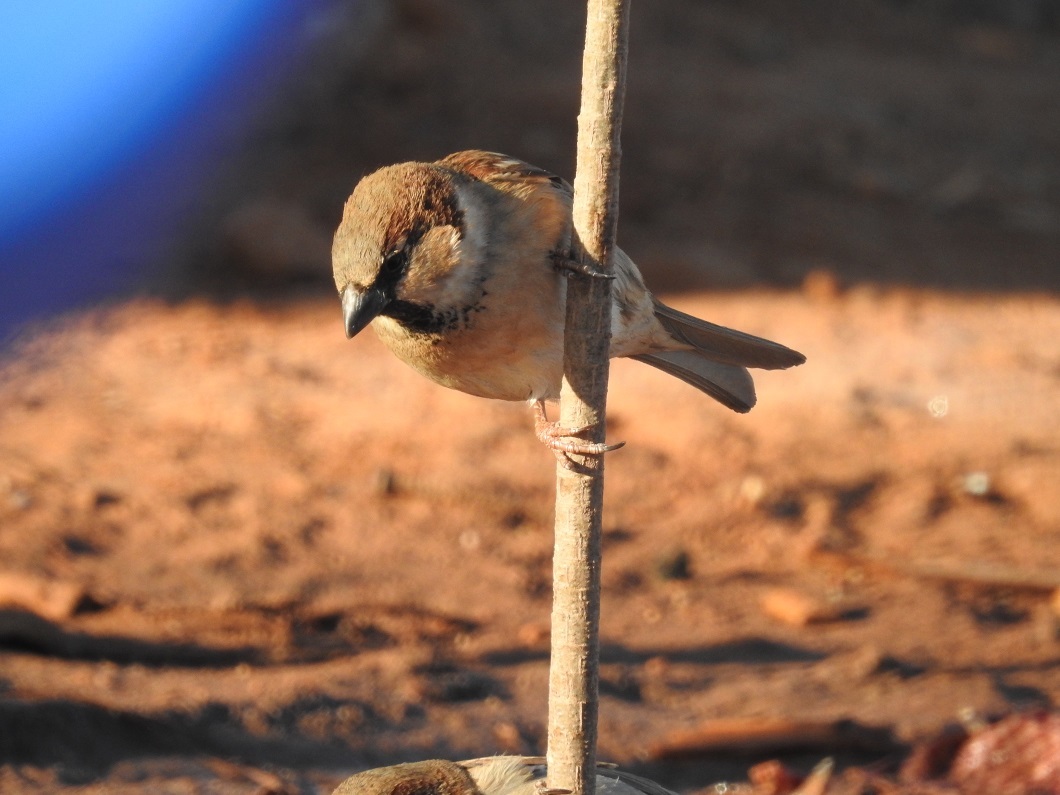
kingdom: Animalia
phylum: Chordata
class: Aves
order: Passeriformes
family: Passeridae
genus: Passer
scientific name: Passer domesticus
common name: House sparrow
